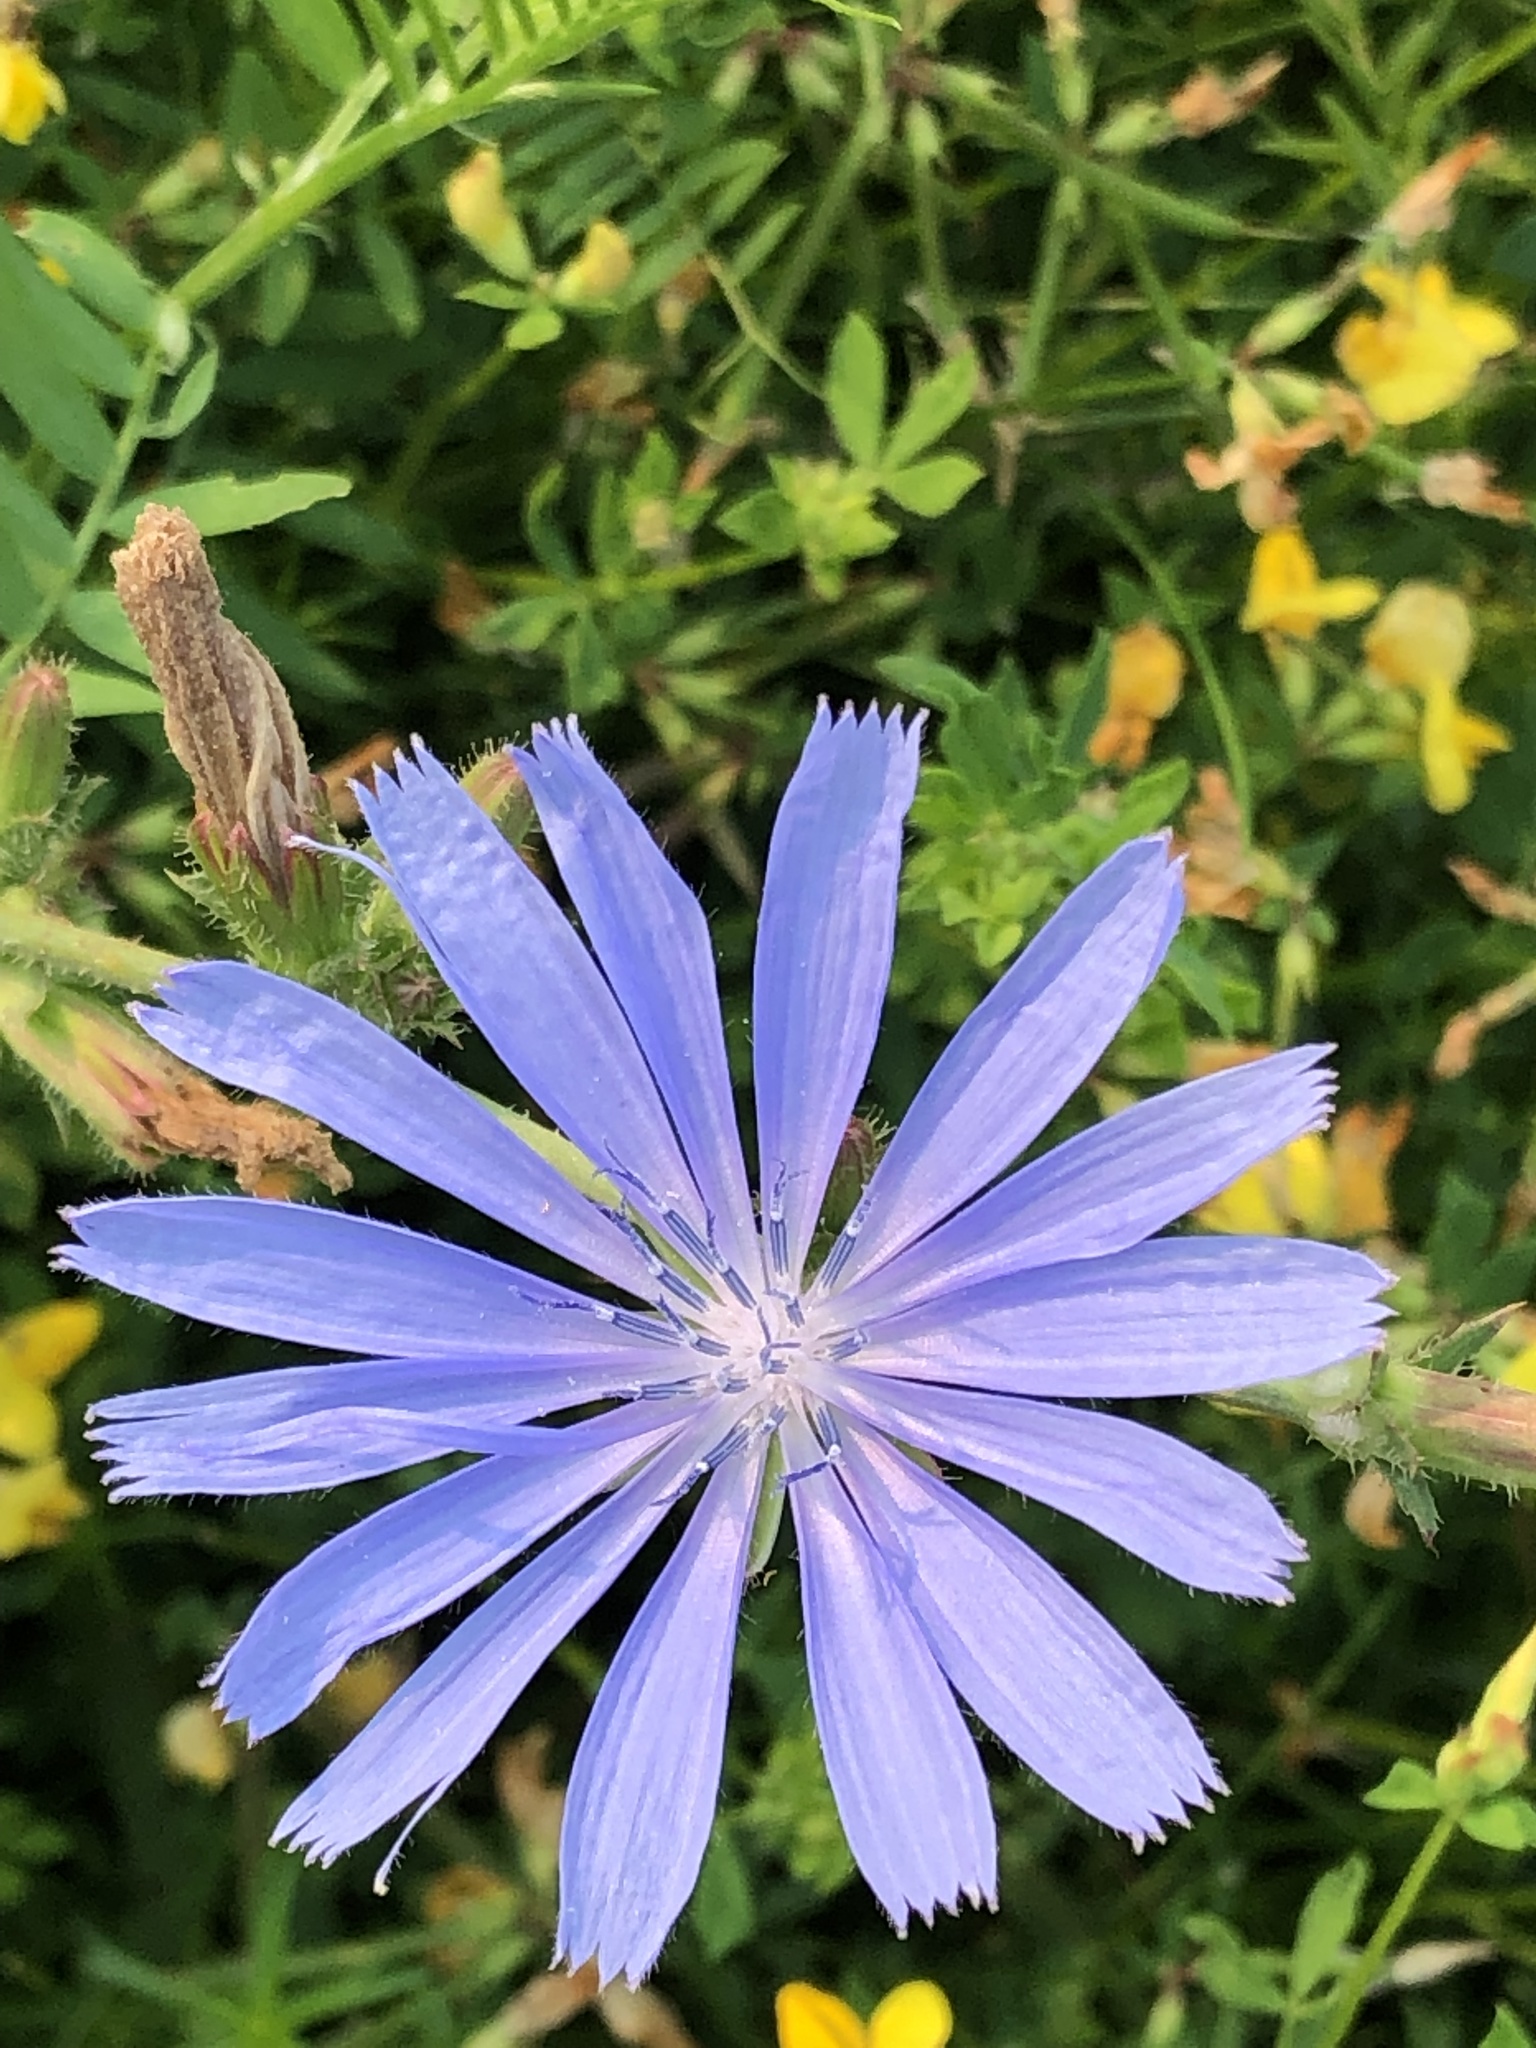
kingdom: Plantae
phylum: Tracheophyta
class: Magnoliopsida
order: Asterales
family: Asteraceae
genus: Cichorium
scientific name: Cichorium intybus
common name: Chicory
